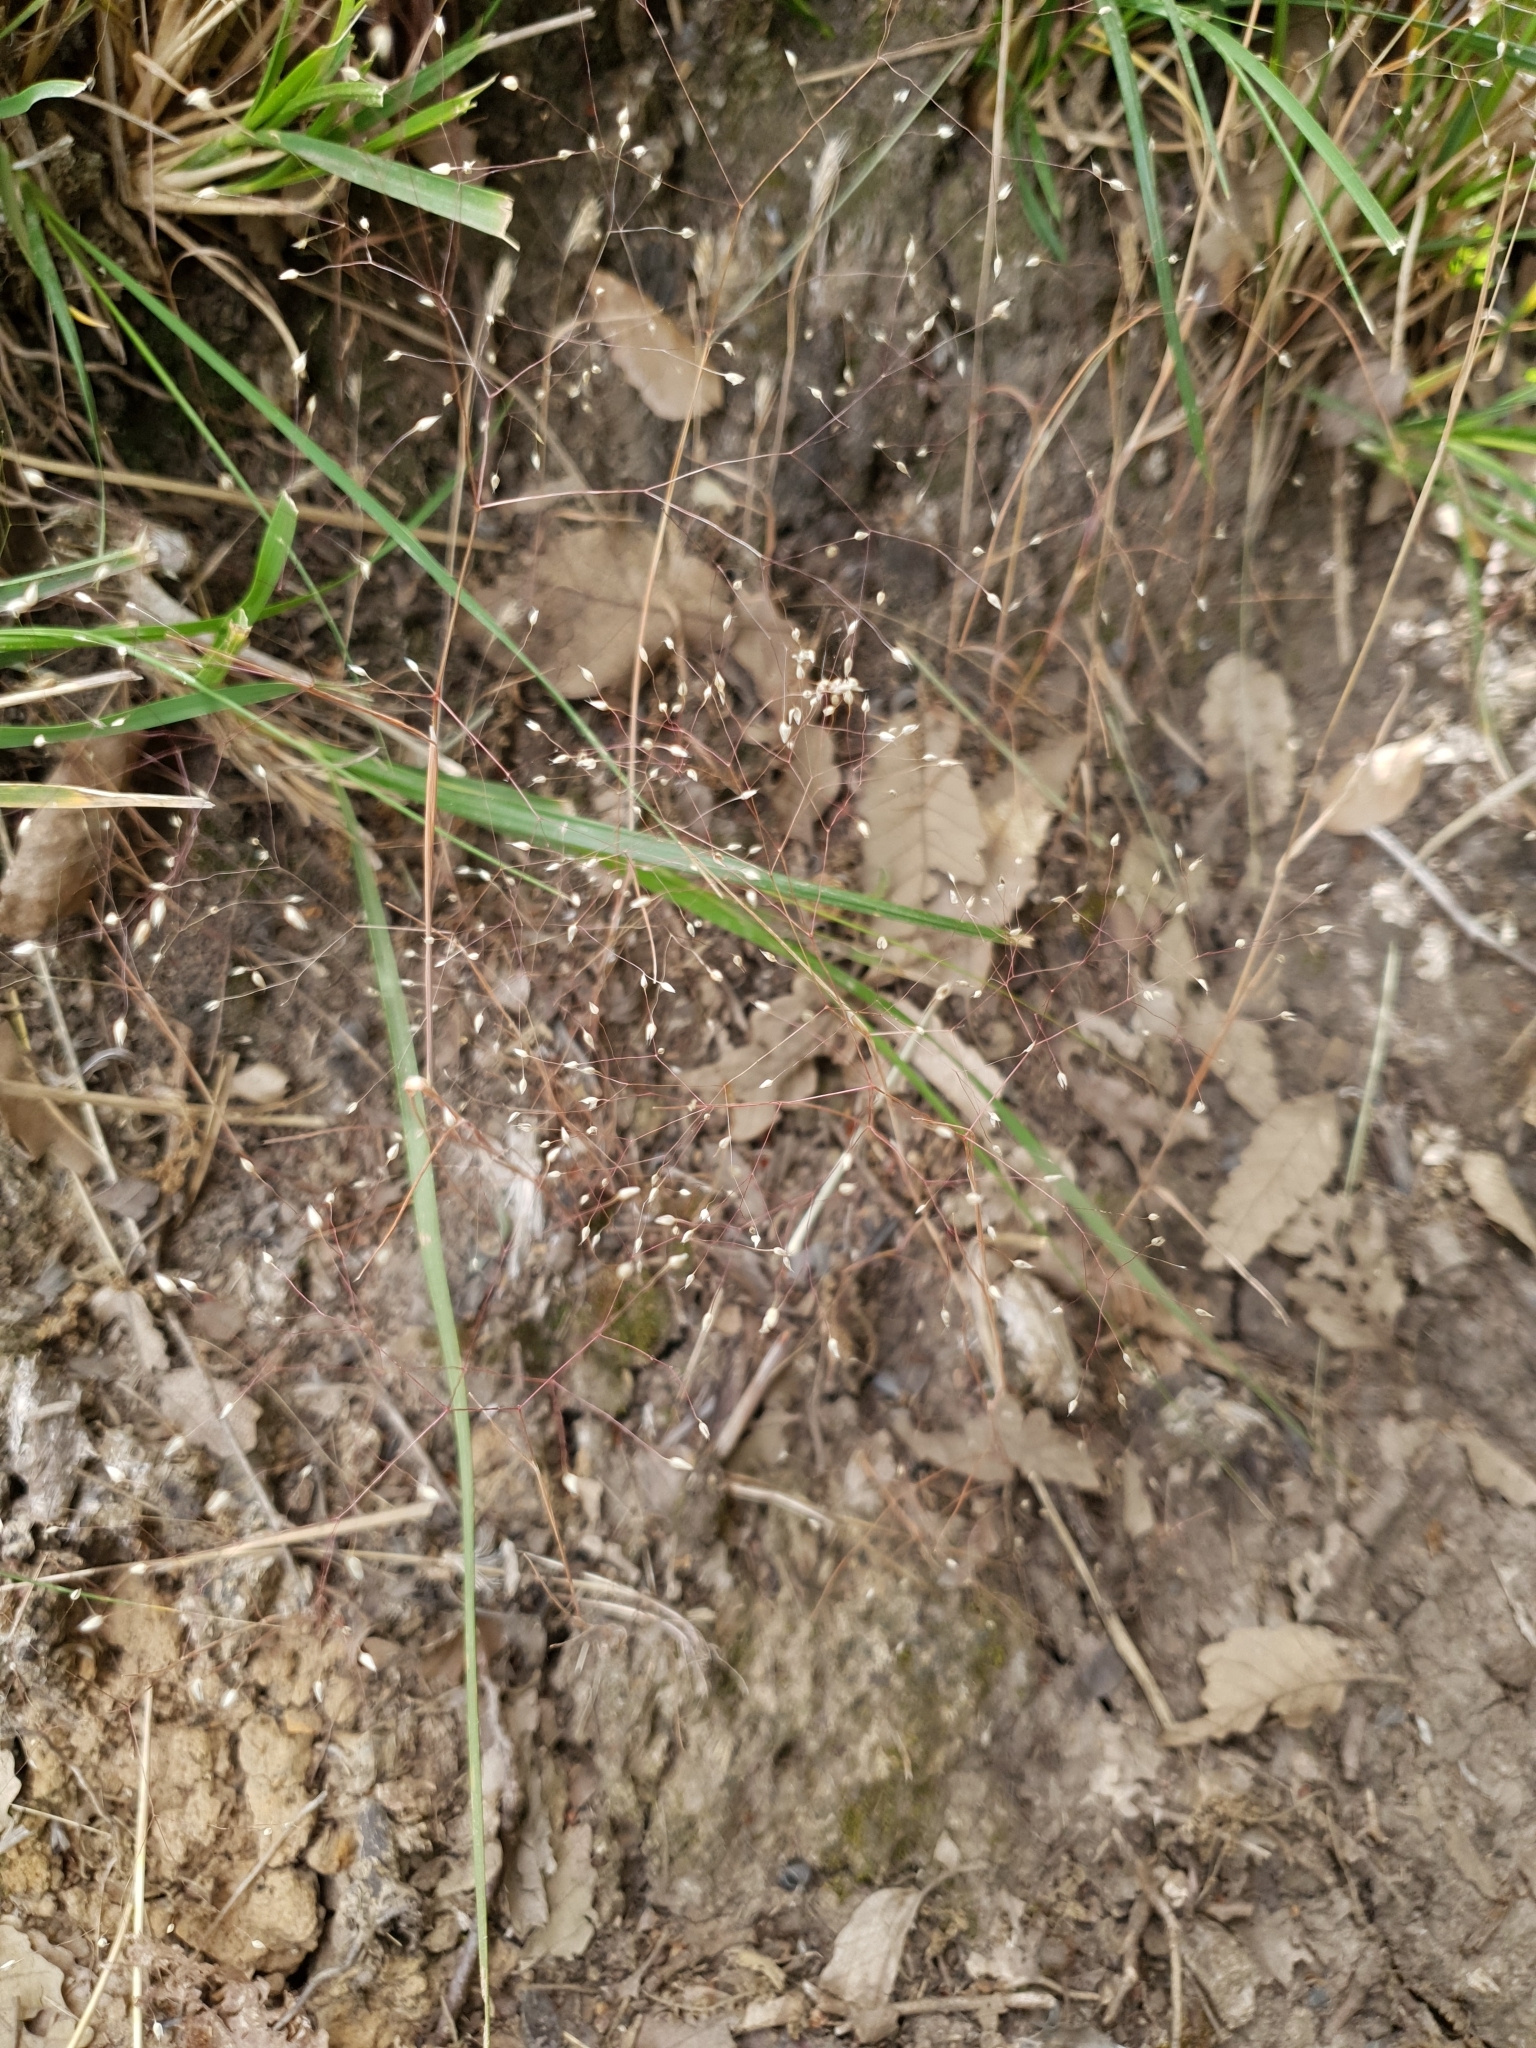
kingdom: Plantae
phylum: Tracheophyta
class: Liliopsida
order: Poales
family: Poaceae
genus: Aira
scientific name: Aira tenorei
